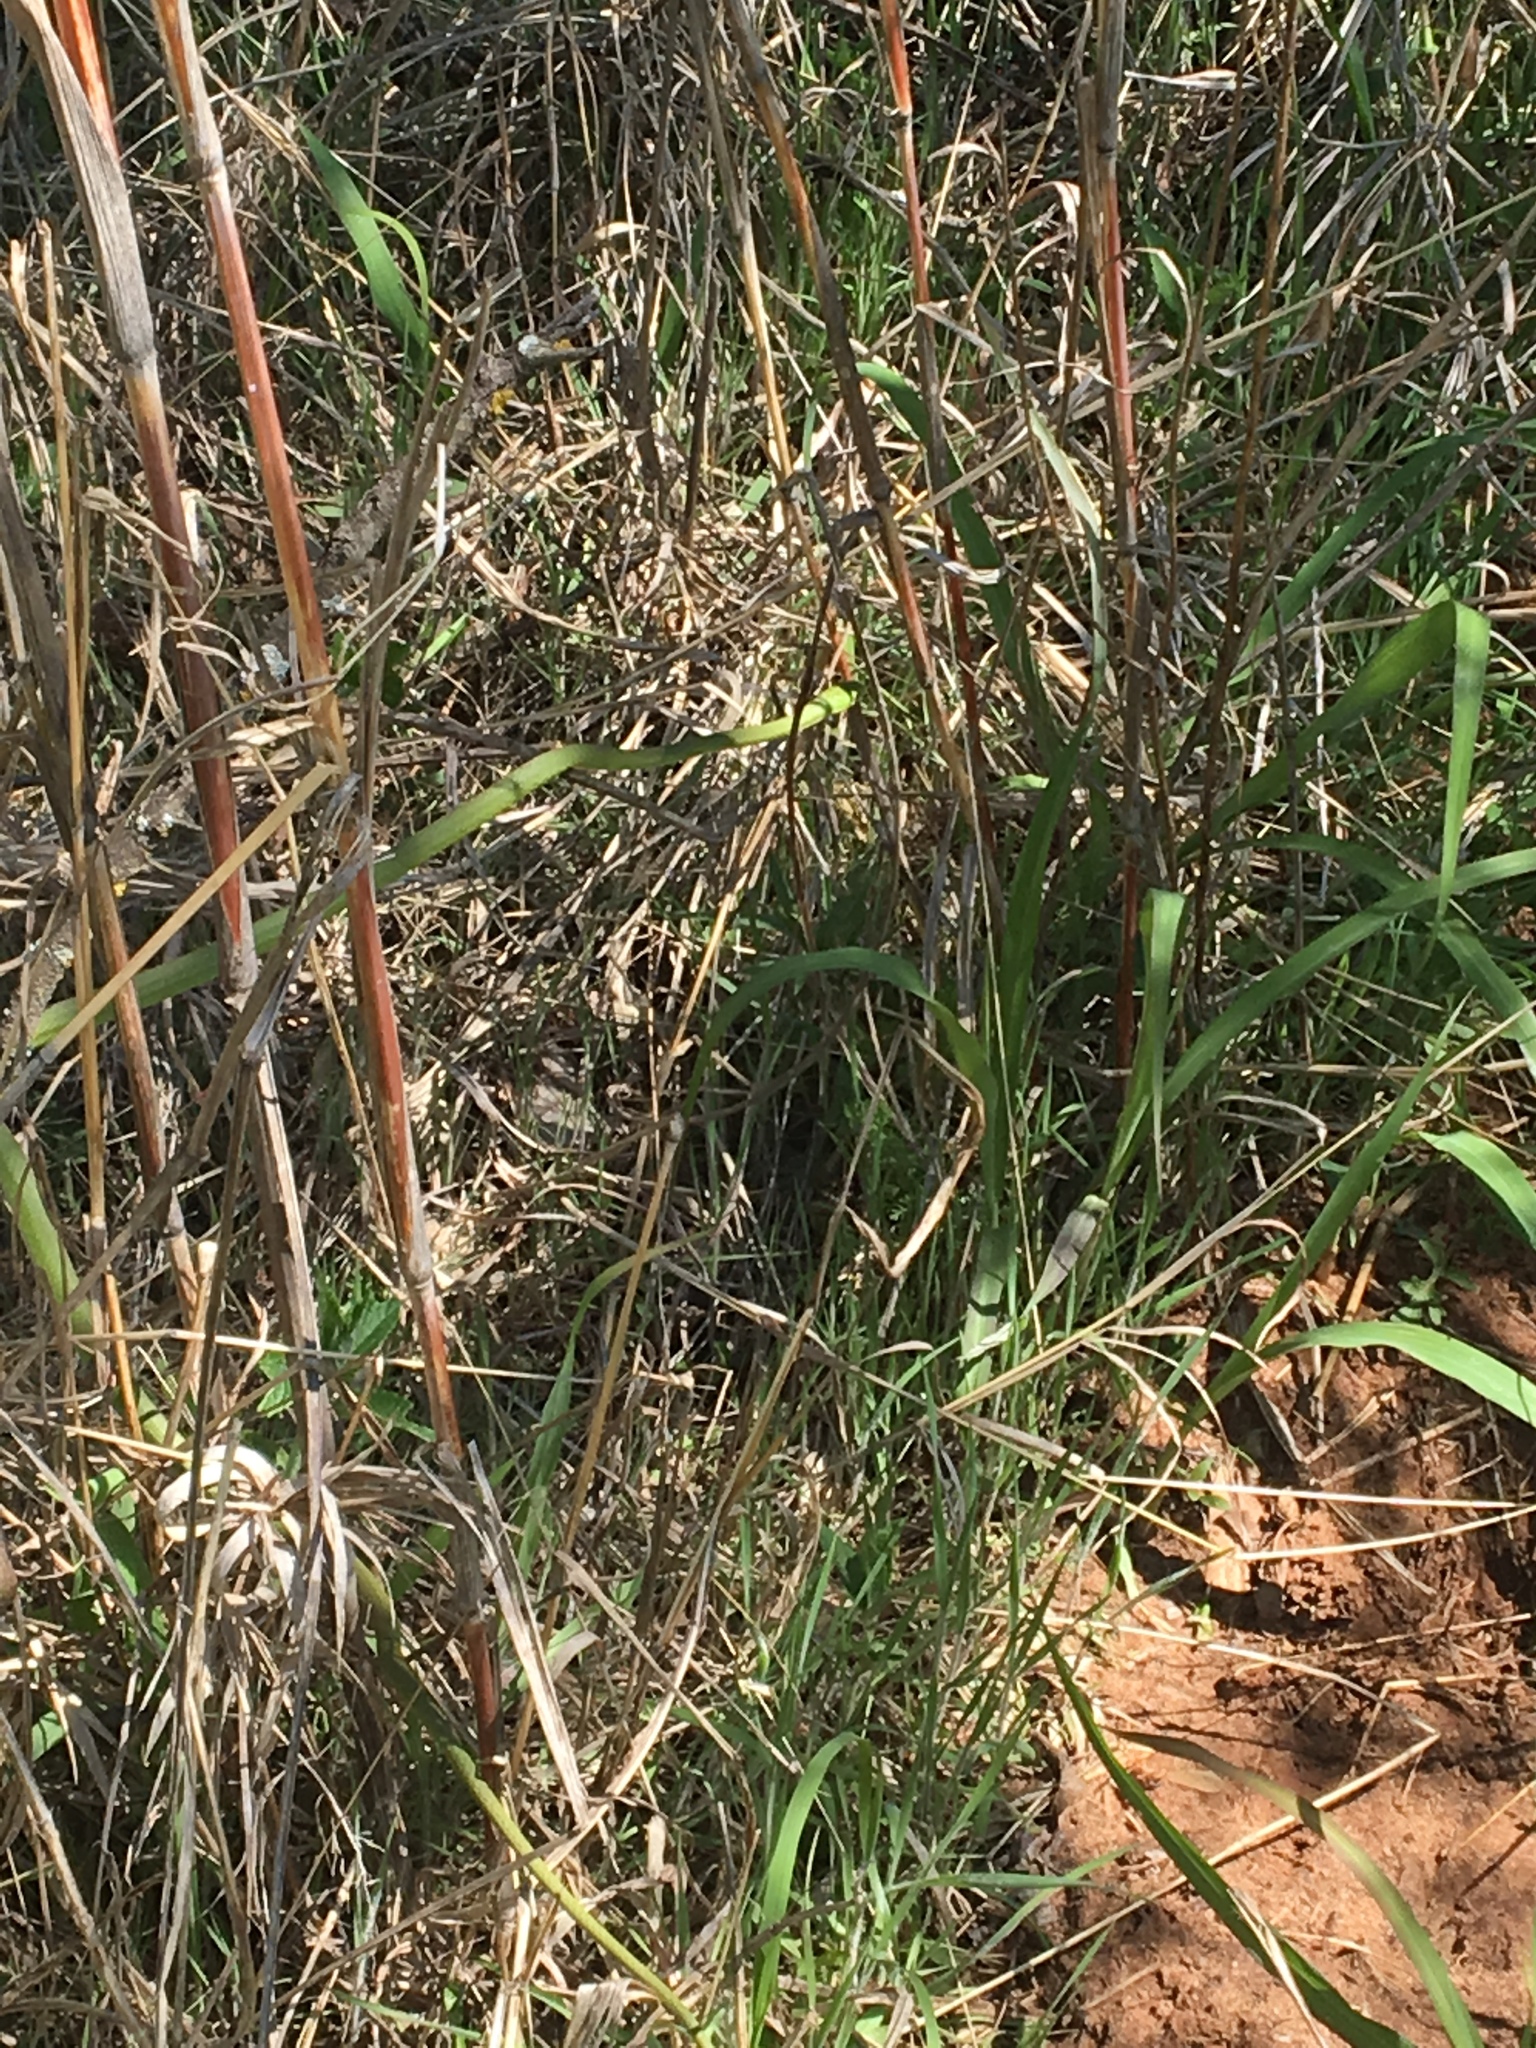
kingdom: Animalia
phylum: Chordata
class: Squamata
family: Colubridae
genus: Opheodrys
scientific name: Opheodrys aestivus
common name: Rough greensnake
